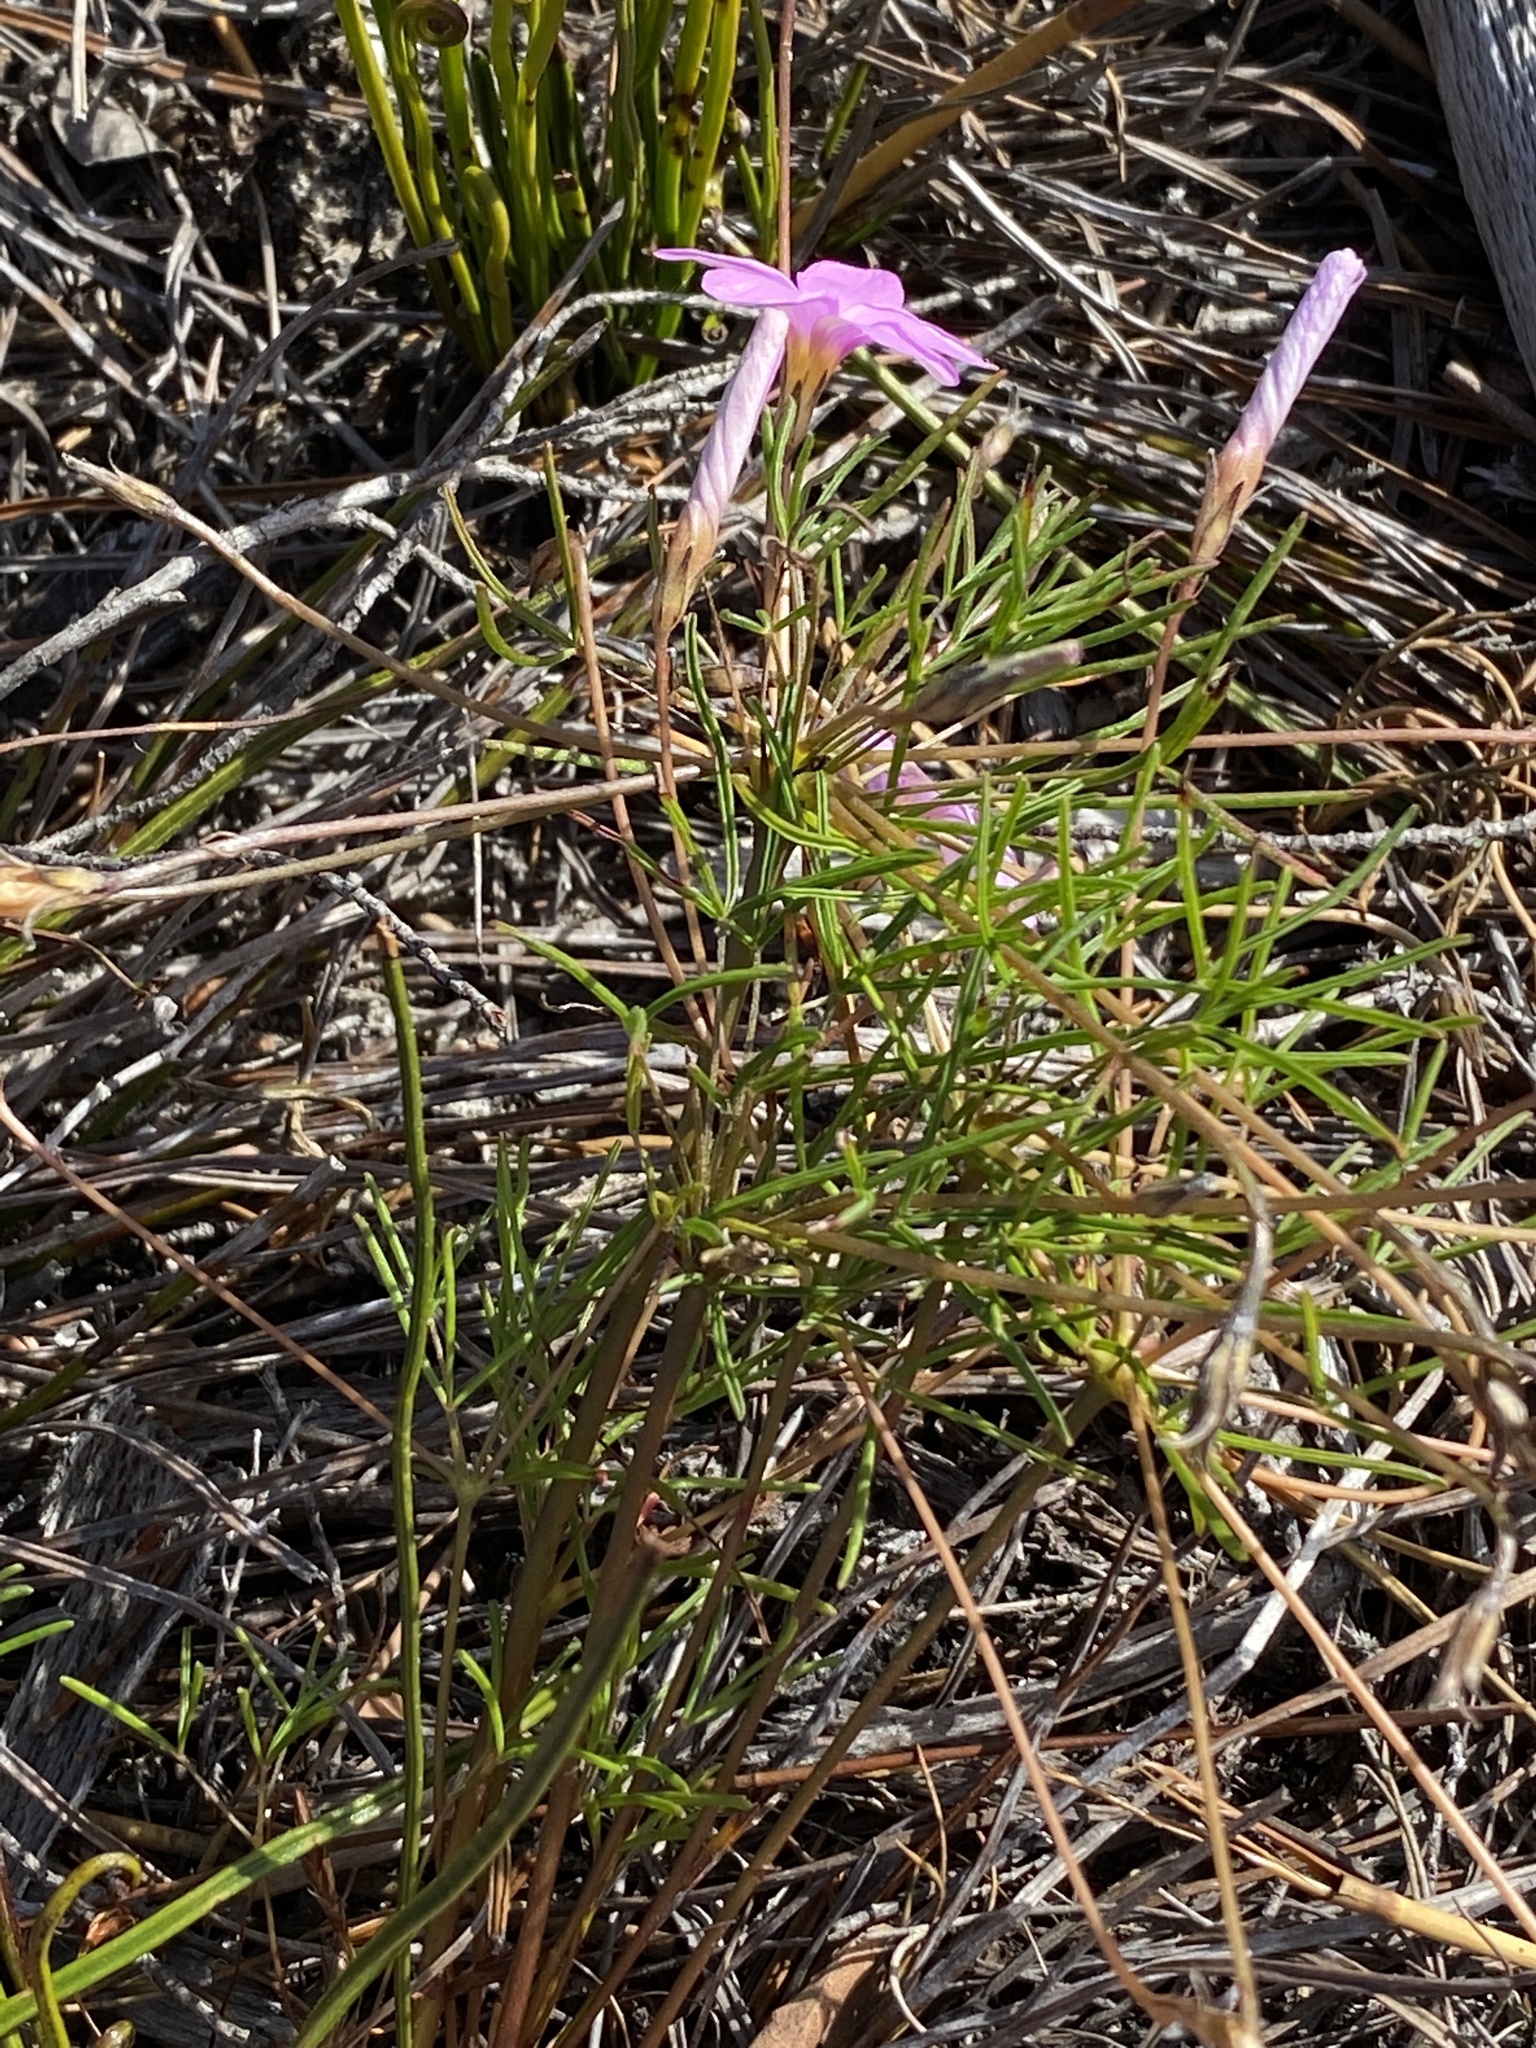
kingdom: Plantae
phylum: Tracheophyta
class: Magnoliopsida
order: Oxalidales
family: Oxalidaceae
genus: Oxalis
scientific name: Oxalis polyphylla
